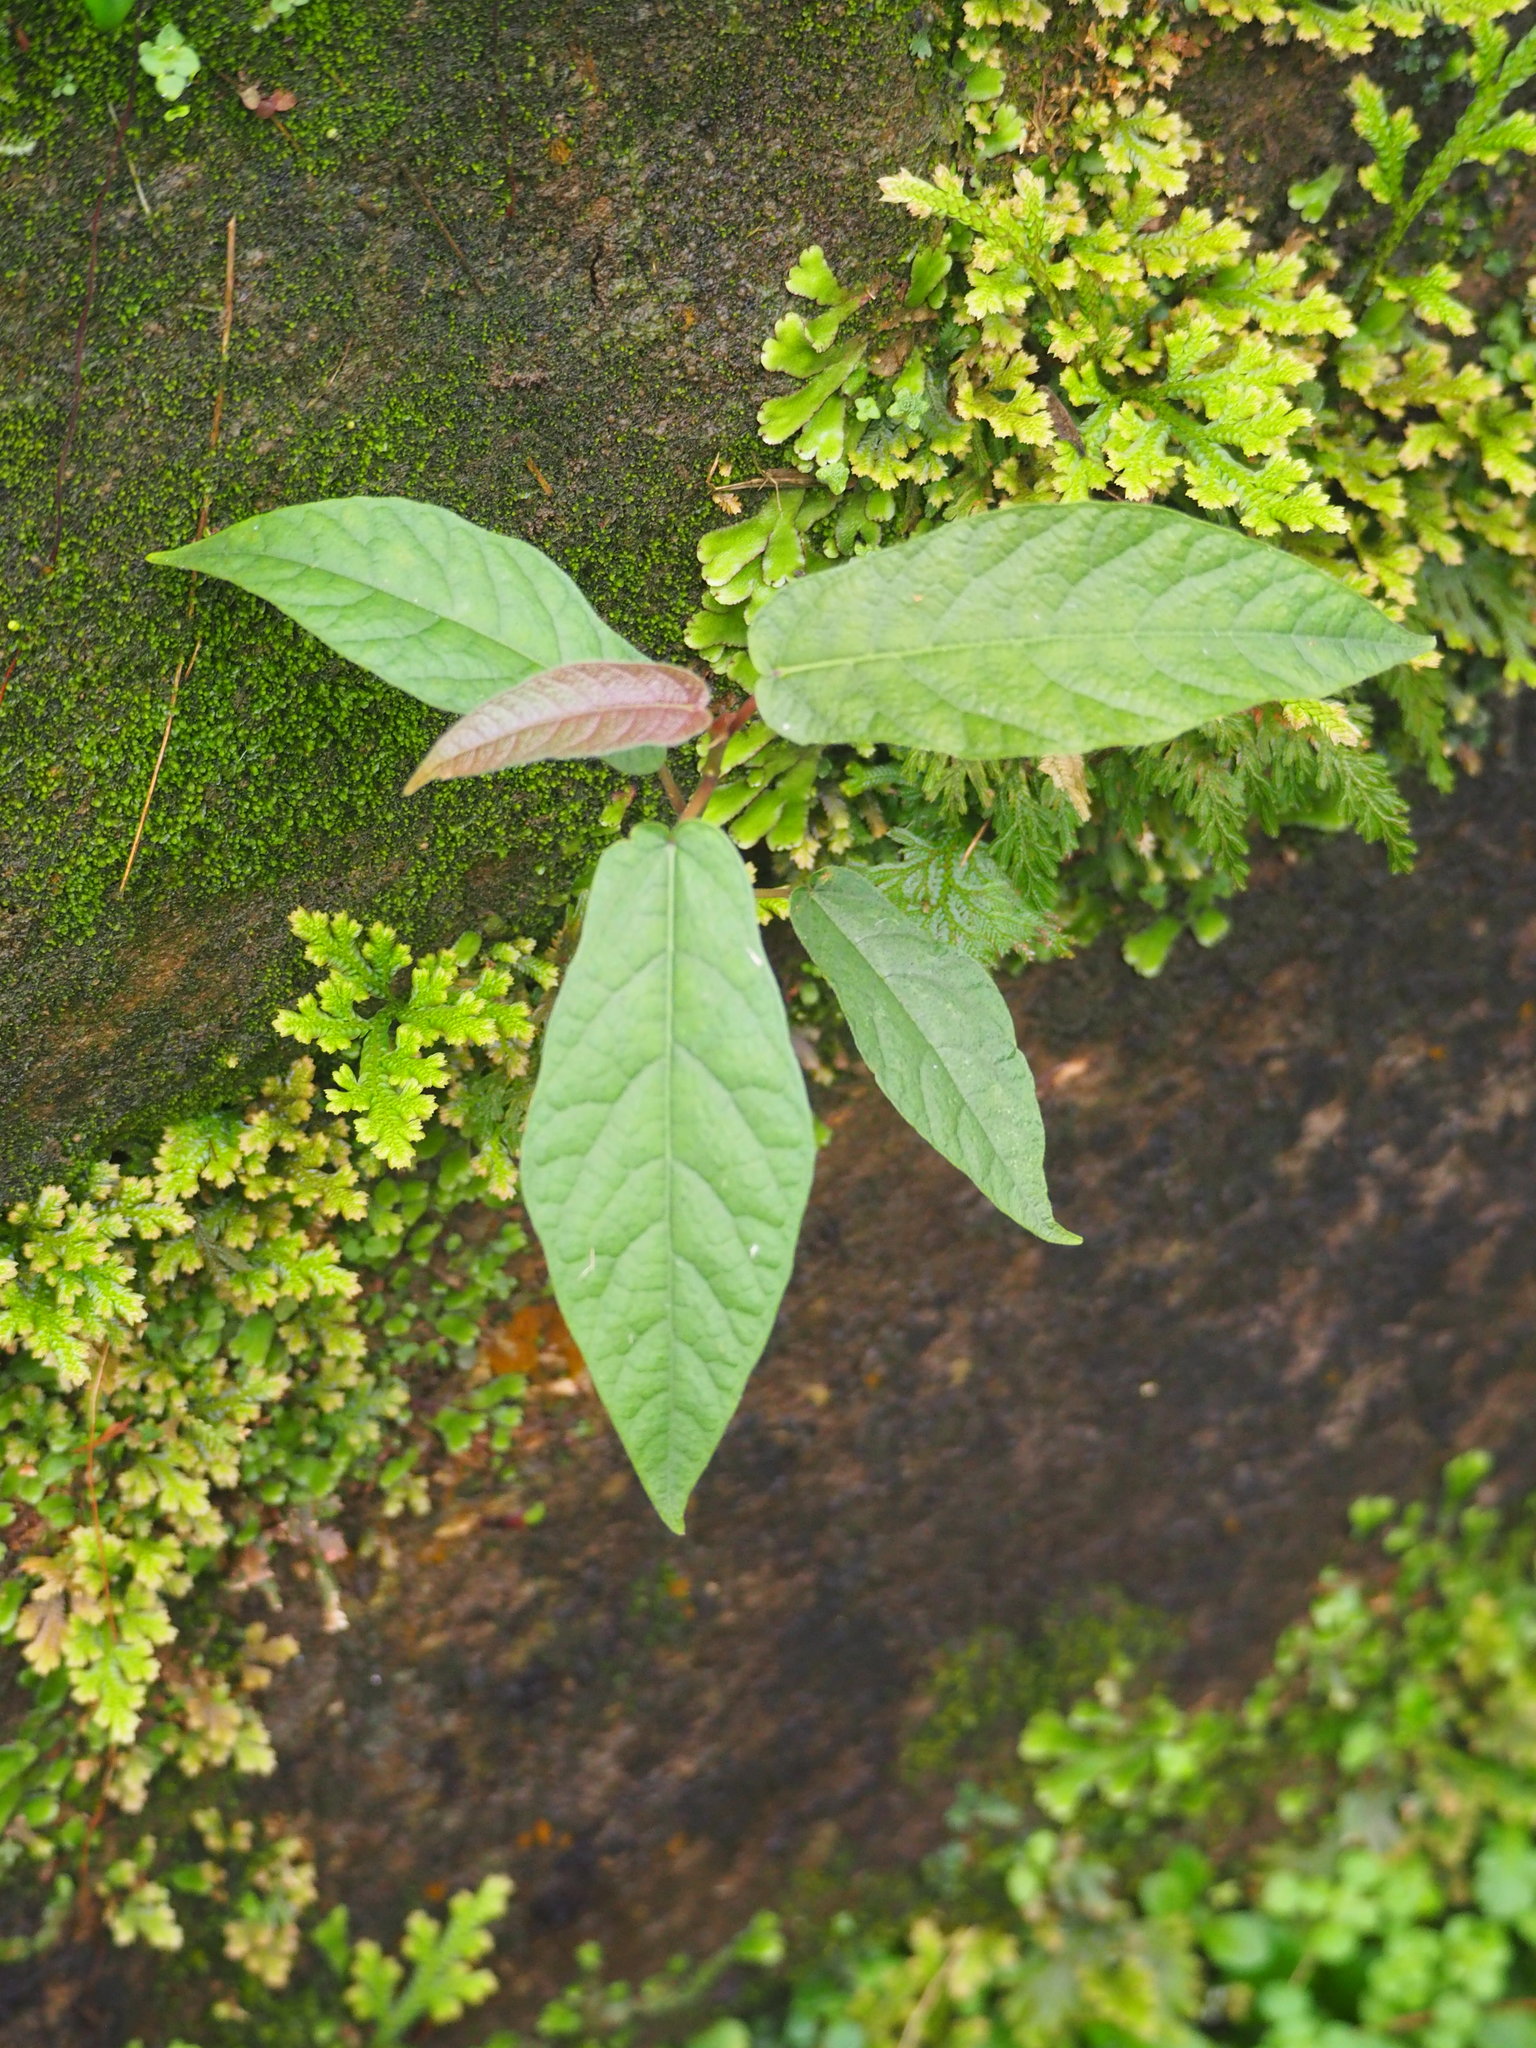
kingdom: Plantae
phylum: Tracheophyta
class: Magnoliopsida
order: Rosales
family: Moraceae
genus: Ficus
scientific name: Ficus erecta
